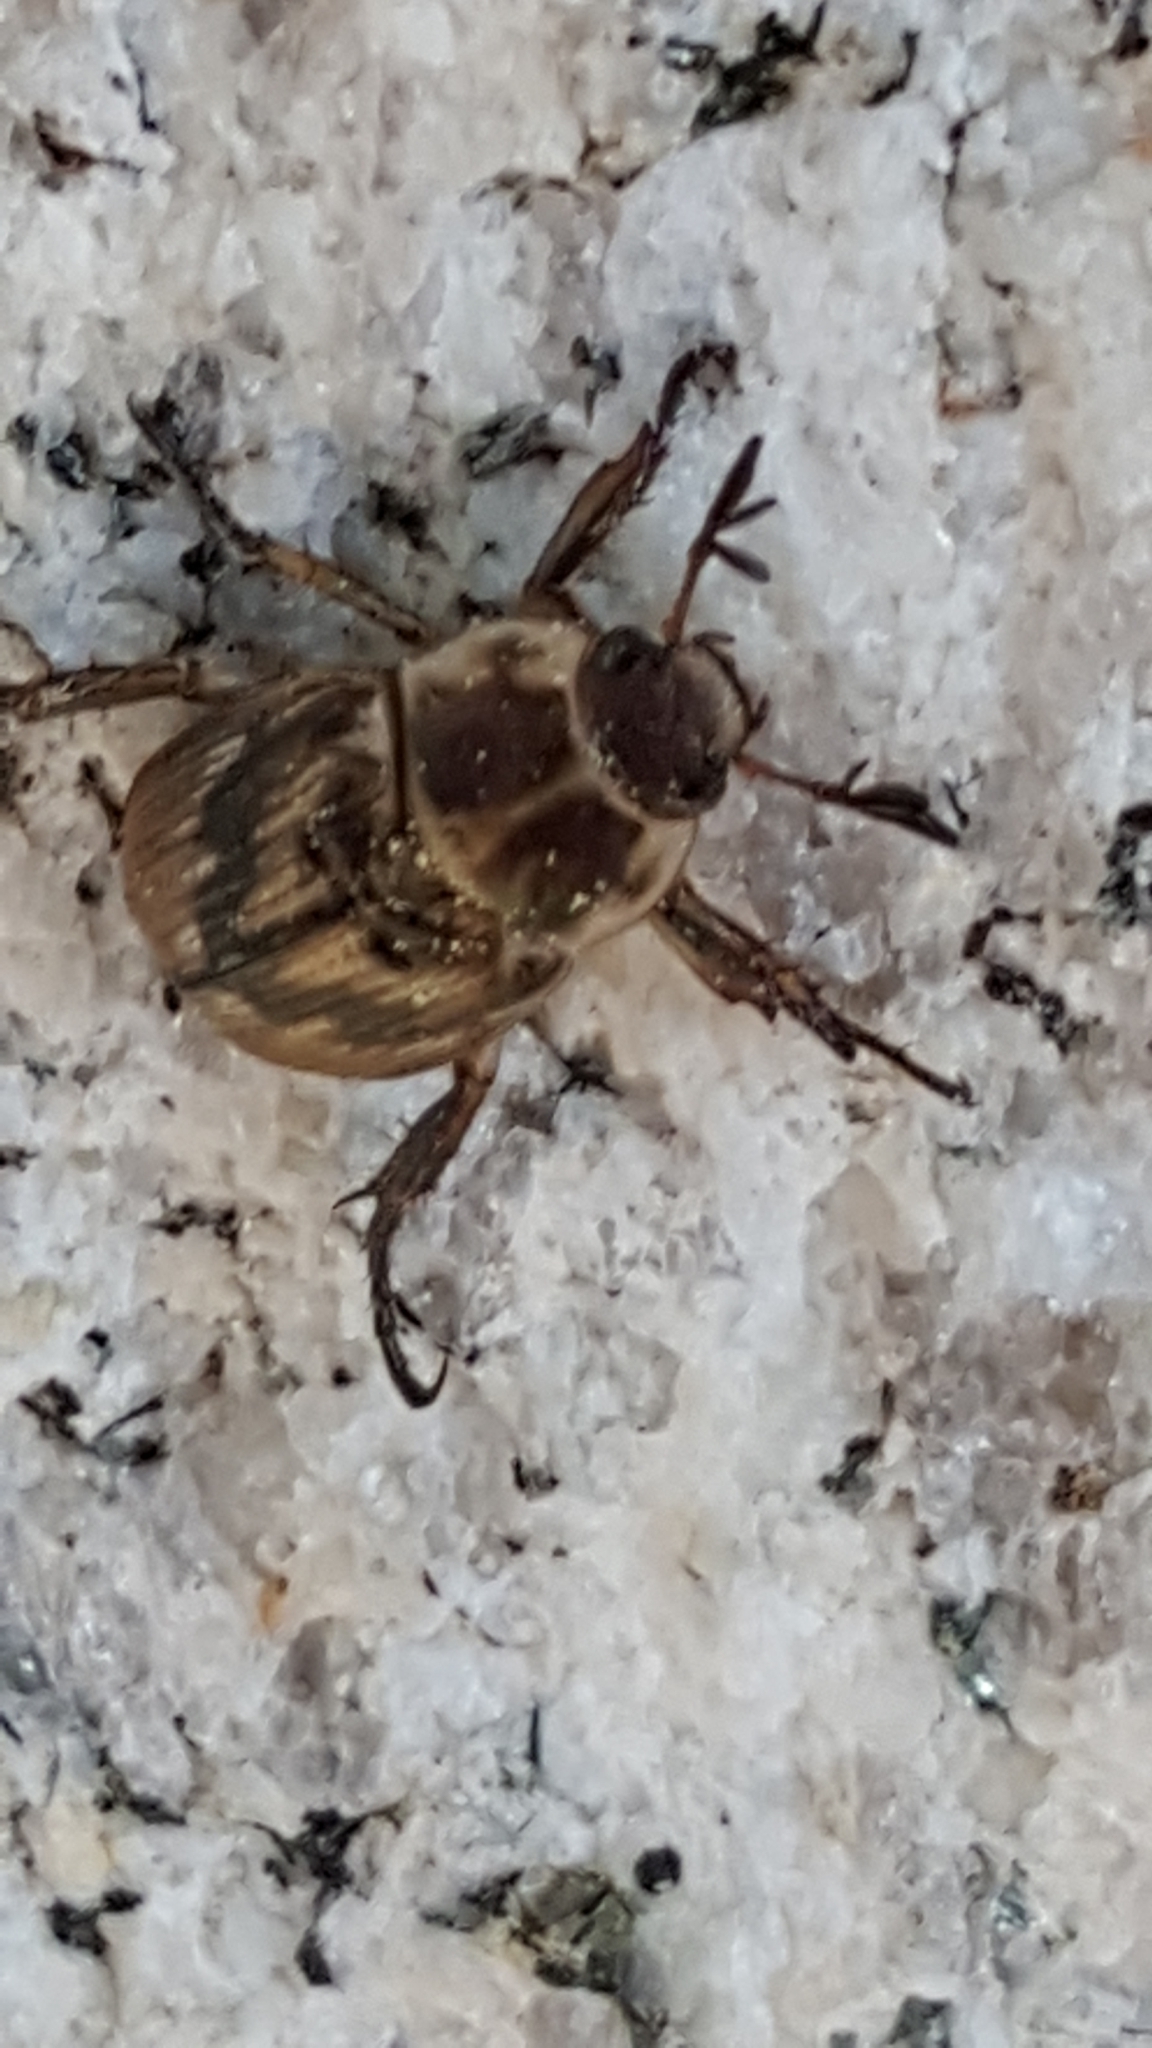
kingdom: Animalia
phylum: Arthropoda
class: Insecta
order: Coleoptera
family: Scarabaeidae
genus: Exomala
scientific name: Exomala orientalis
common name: Oriental beetle
